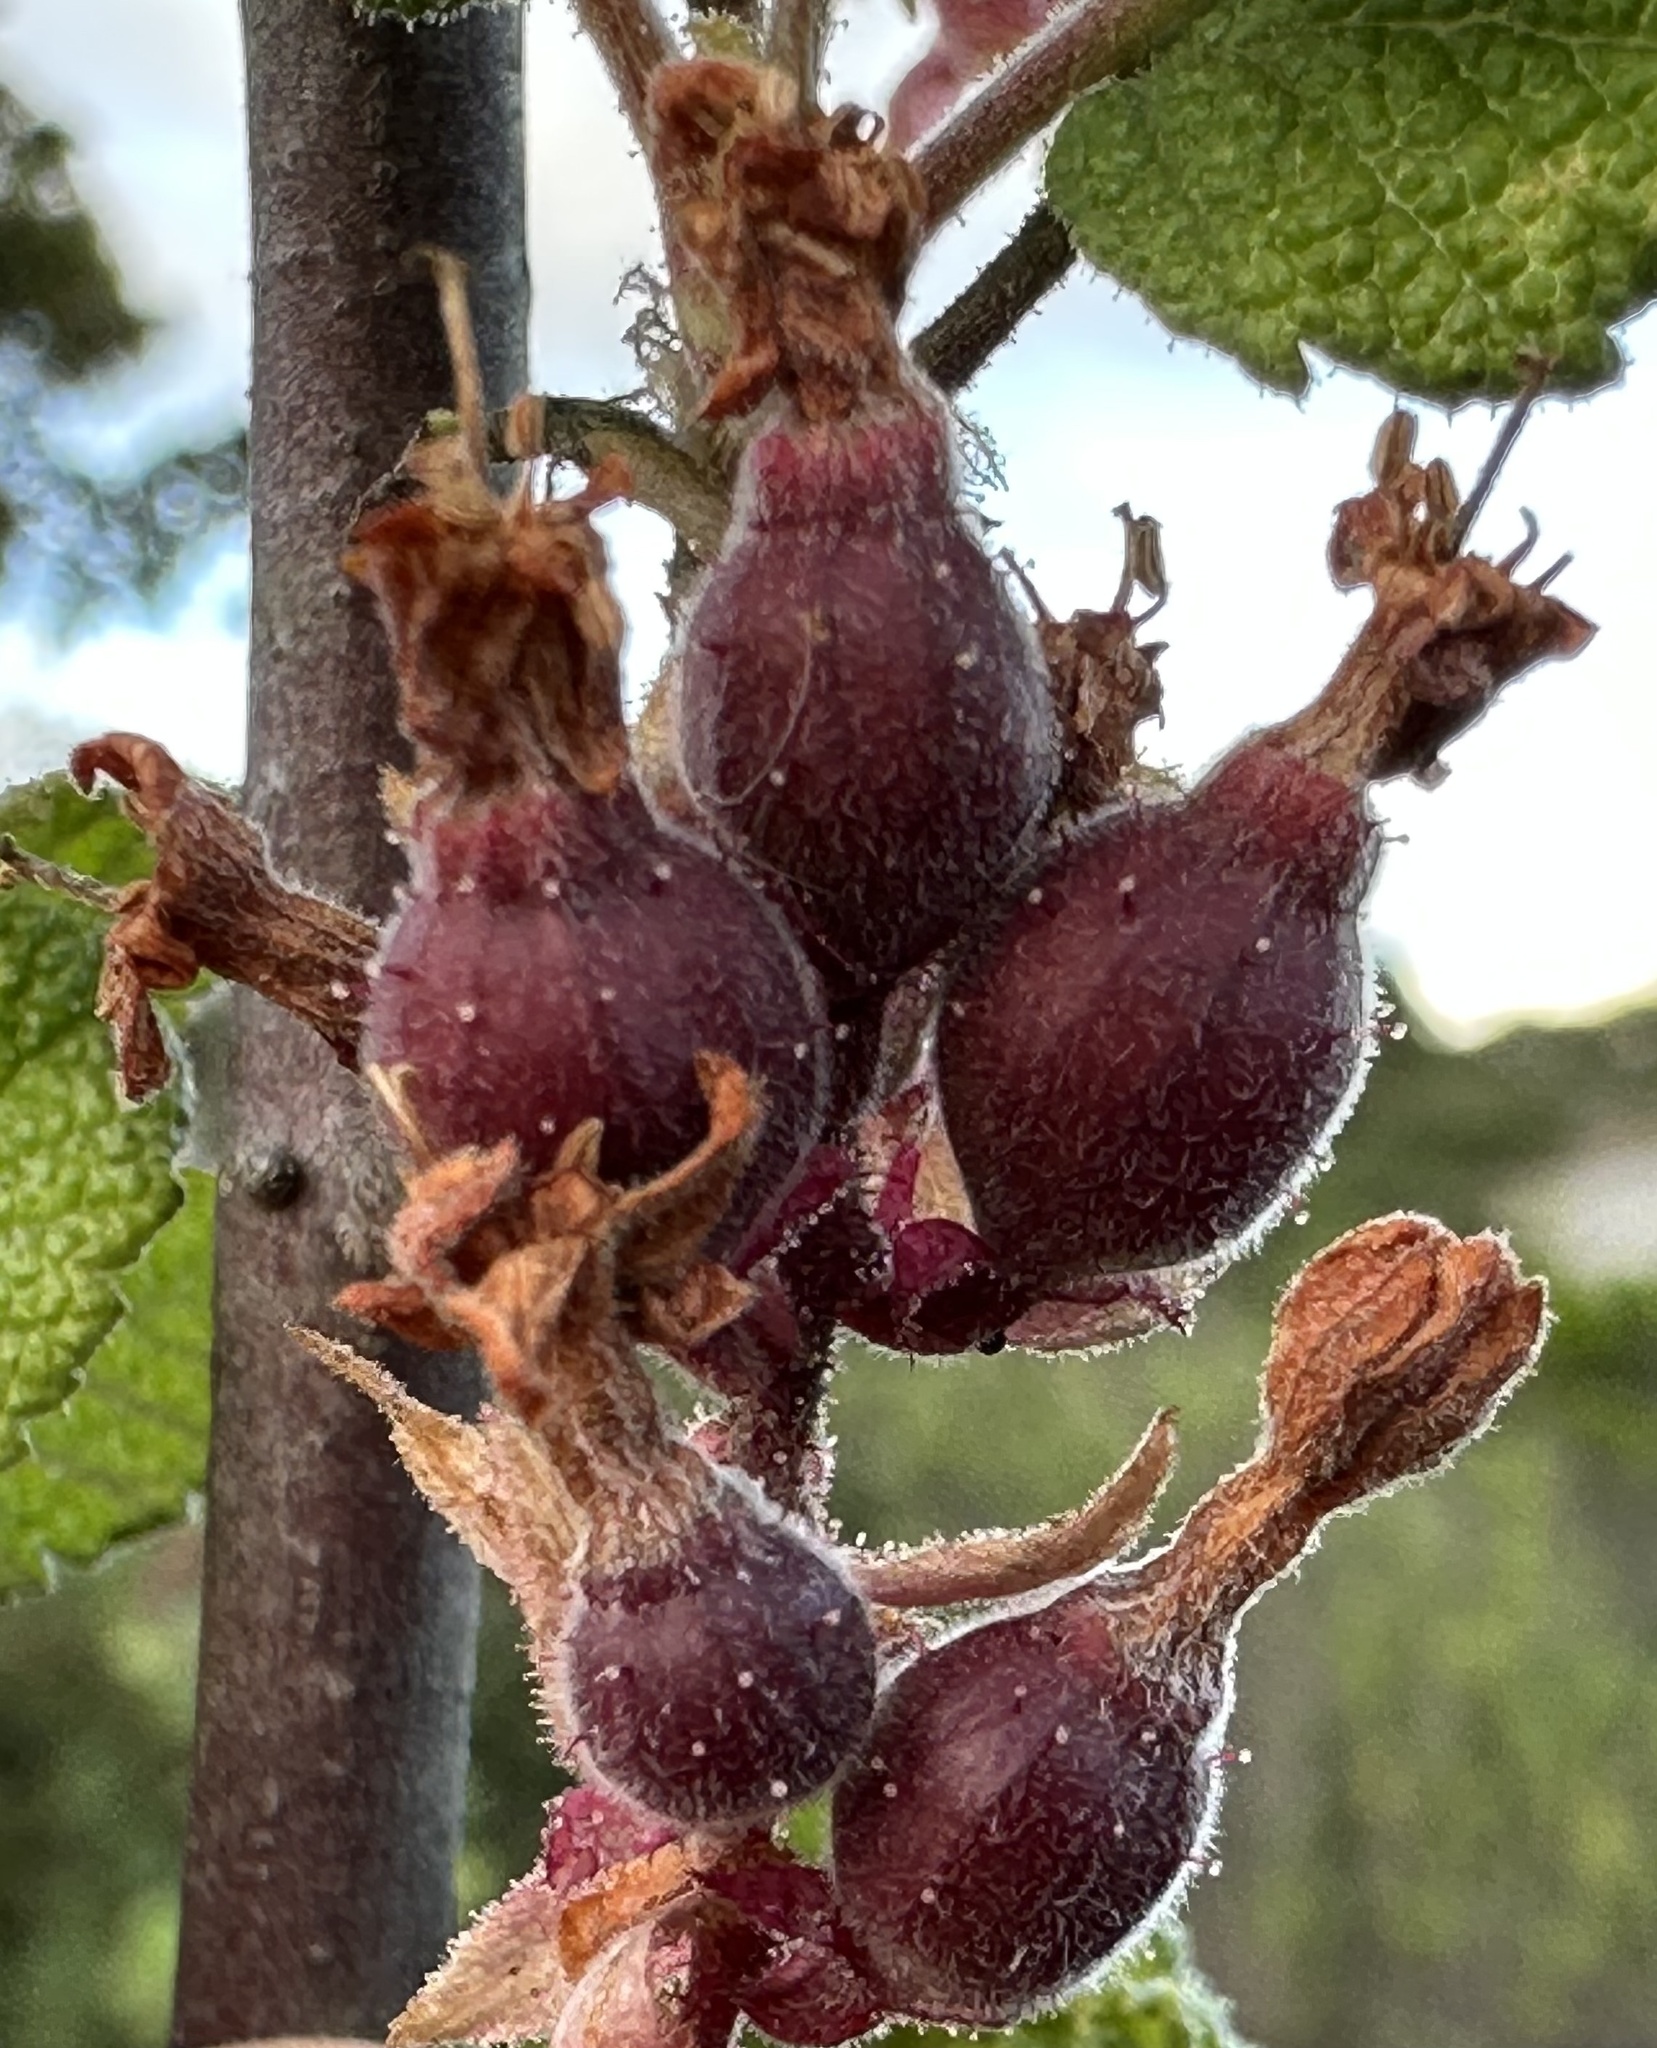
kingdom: Plantae
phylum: Tracheophyta
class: Magnoliopsida
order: Saxifragales
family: Grossulariaceae
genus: Ribes
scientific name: Ribes malvaceum
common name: Chaparral currant
